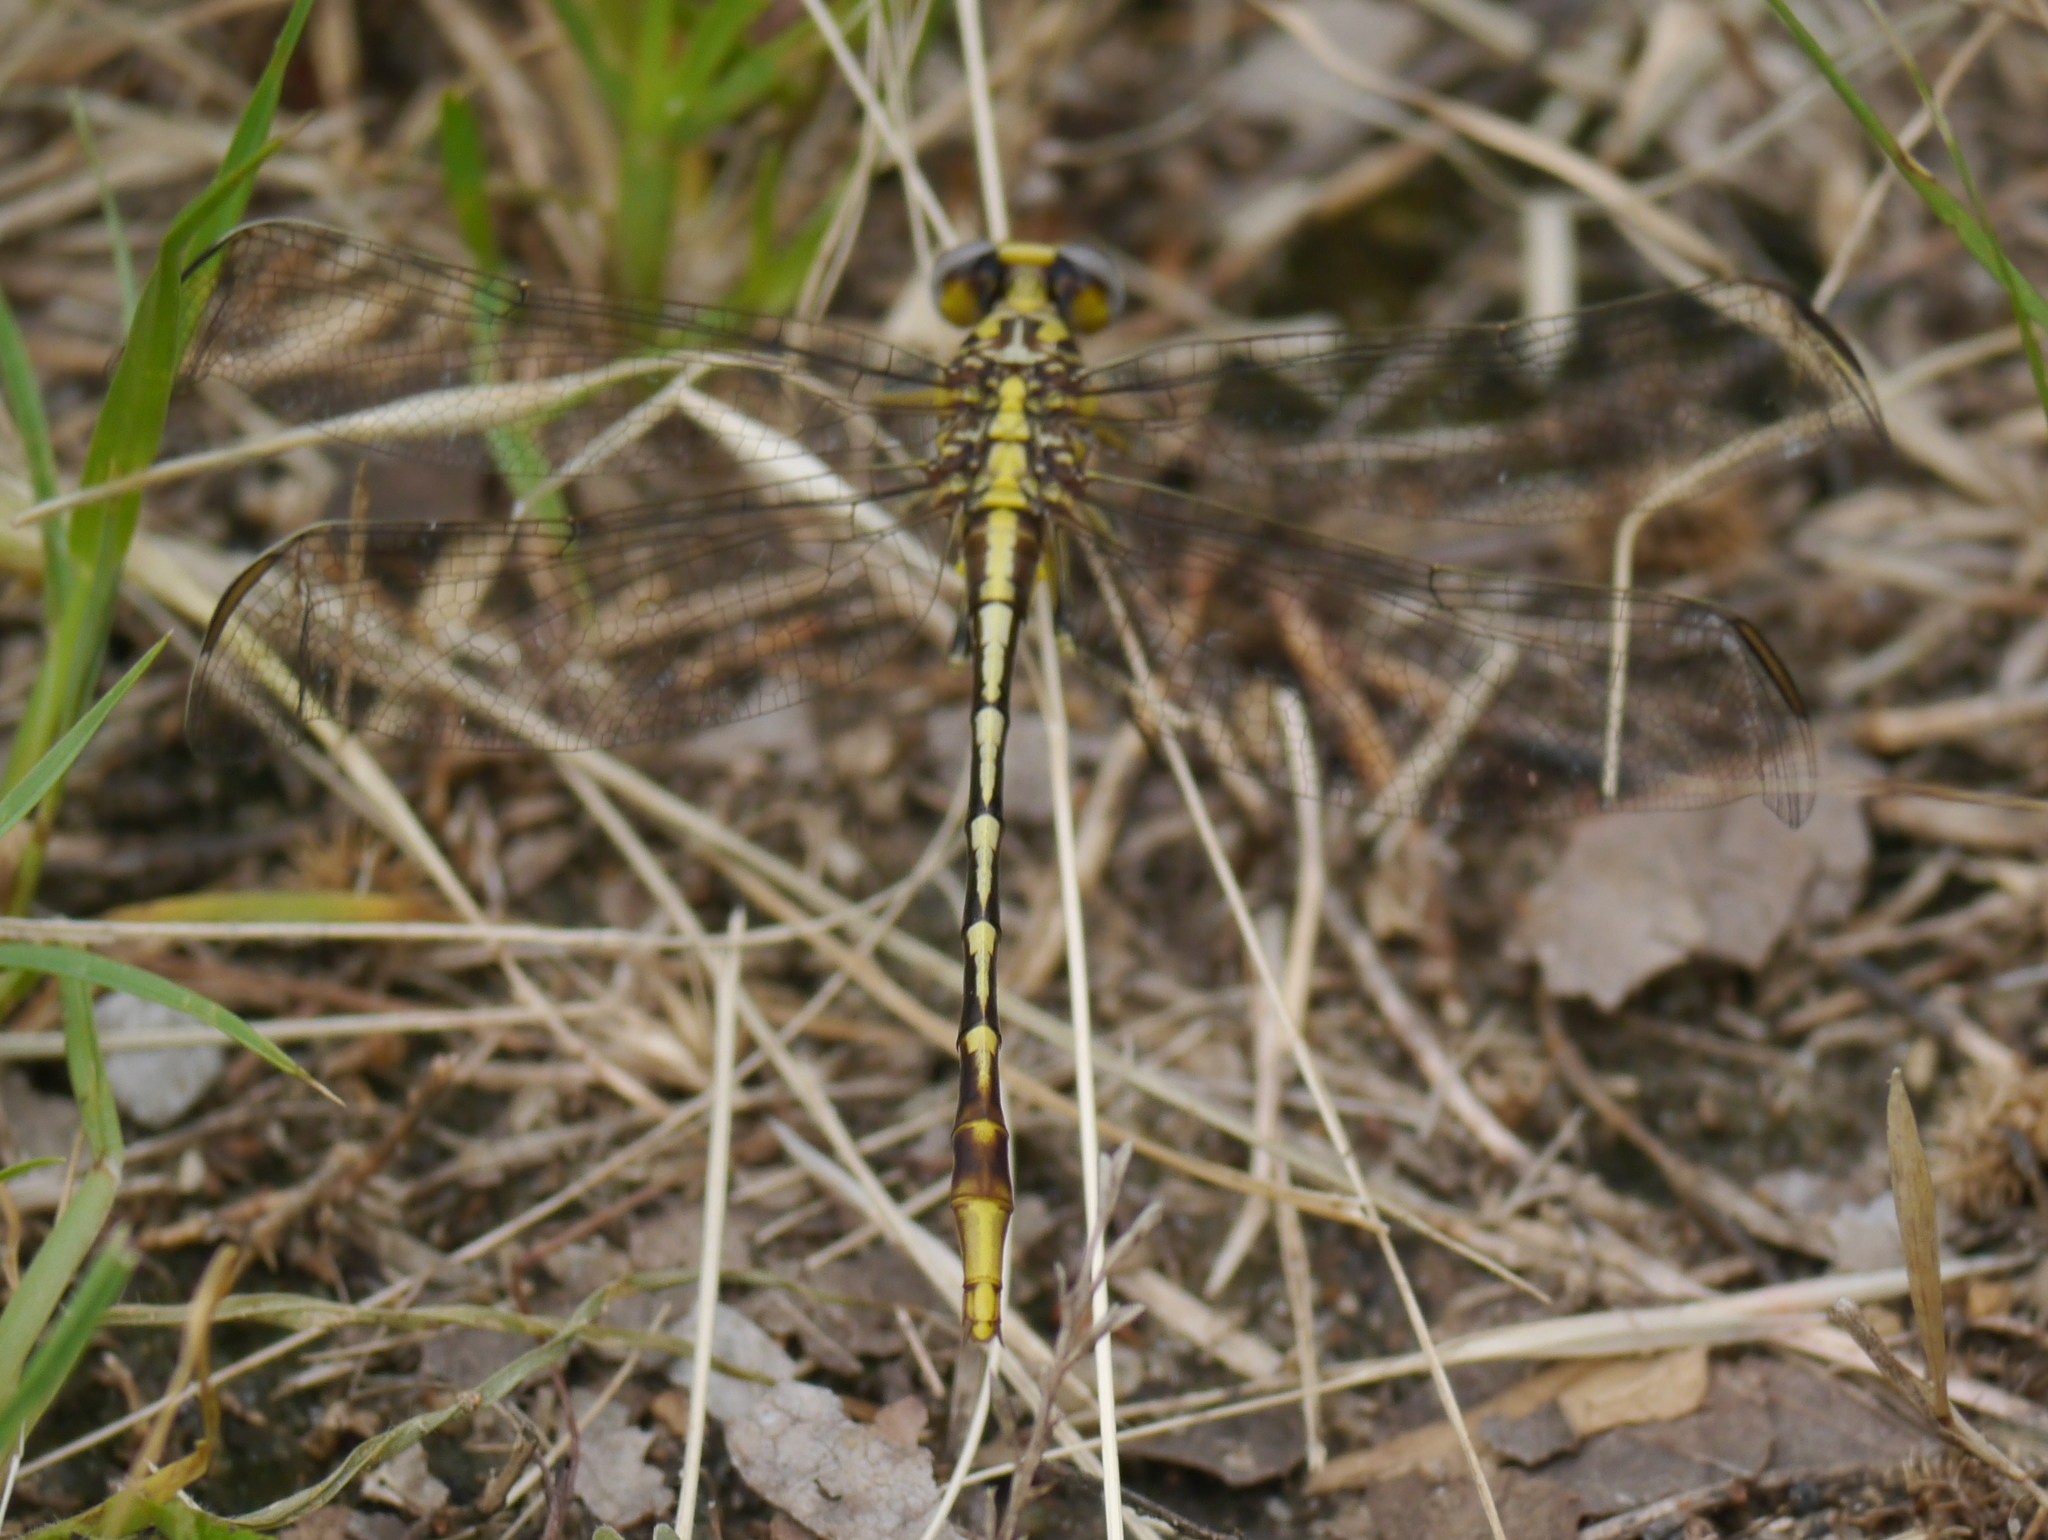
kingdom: Animalia
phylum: Arthropoda
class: Insecta
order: Odonata
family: Gomphidae
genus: Phanogomphus
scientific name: Phanogomphus militaris
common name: Sulphur-tipped clubtail
